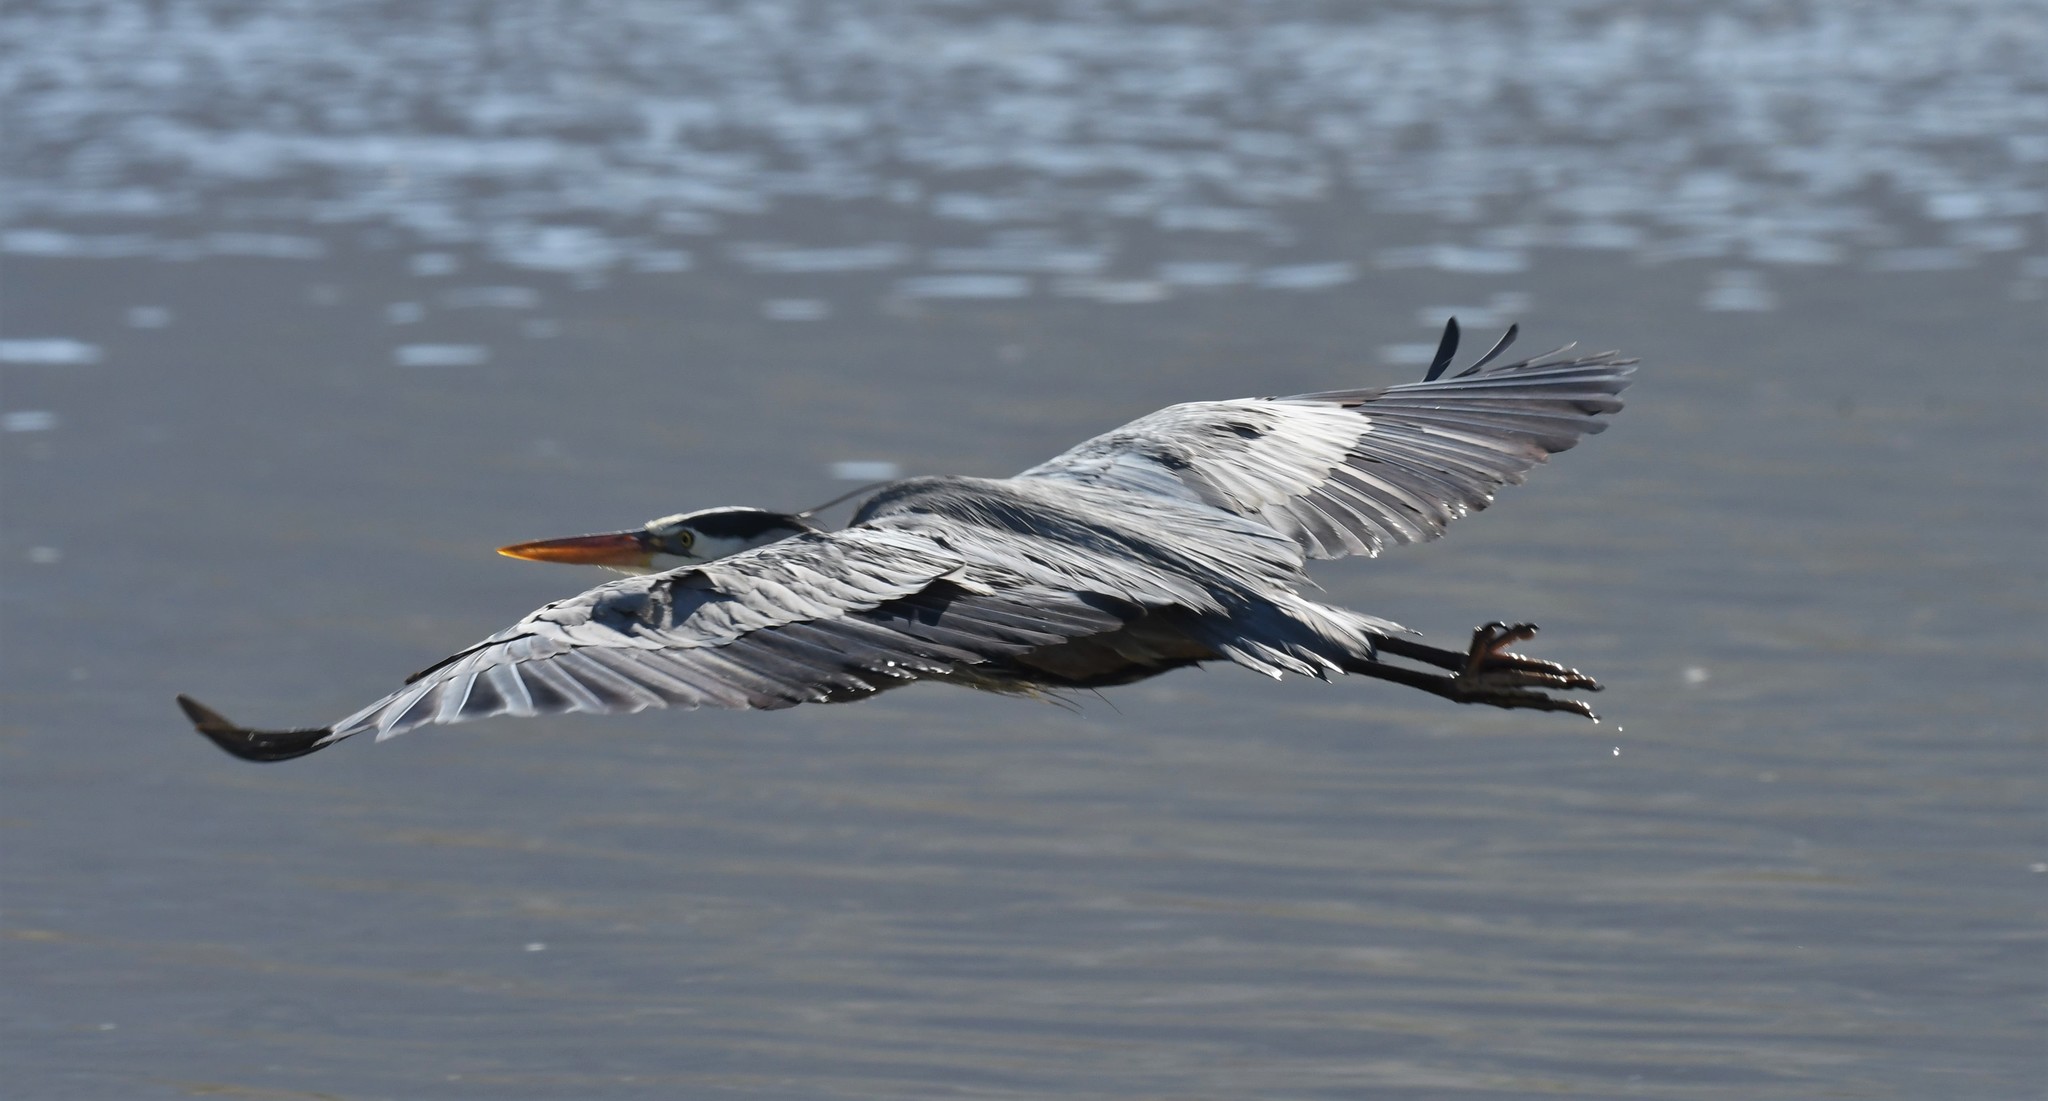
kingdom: Animalia
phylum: Chordata
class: Aves
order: Pelecaniformes
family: Ardeidae
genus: Ardea
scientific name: Ardea herodias
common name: Great blue heron
